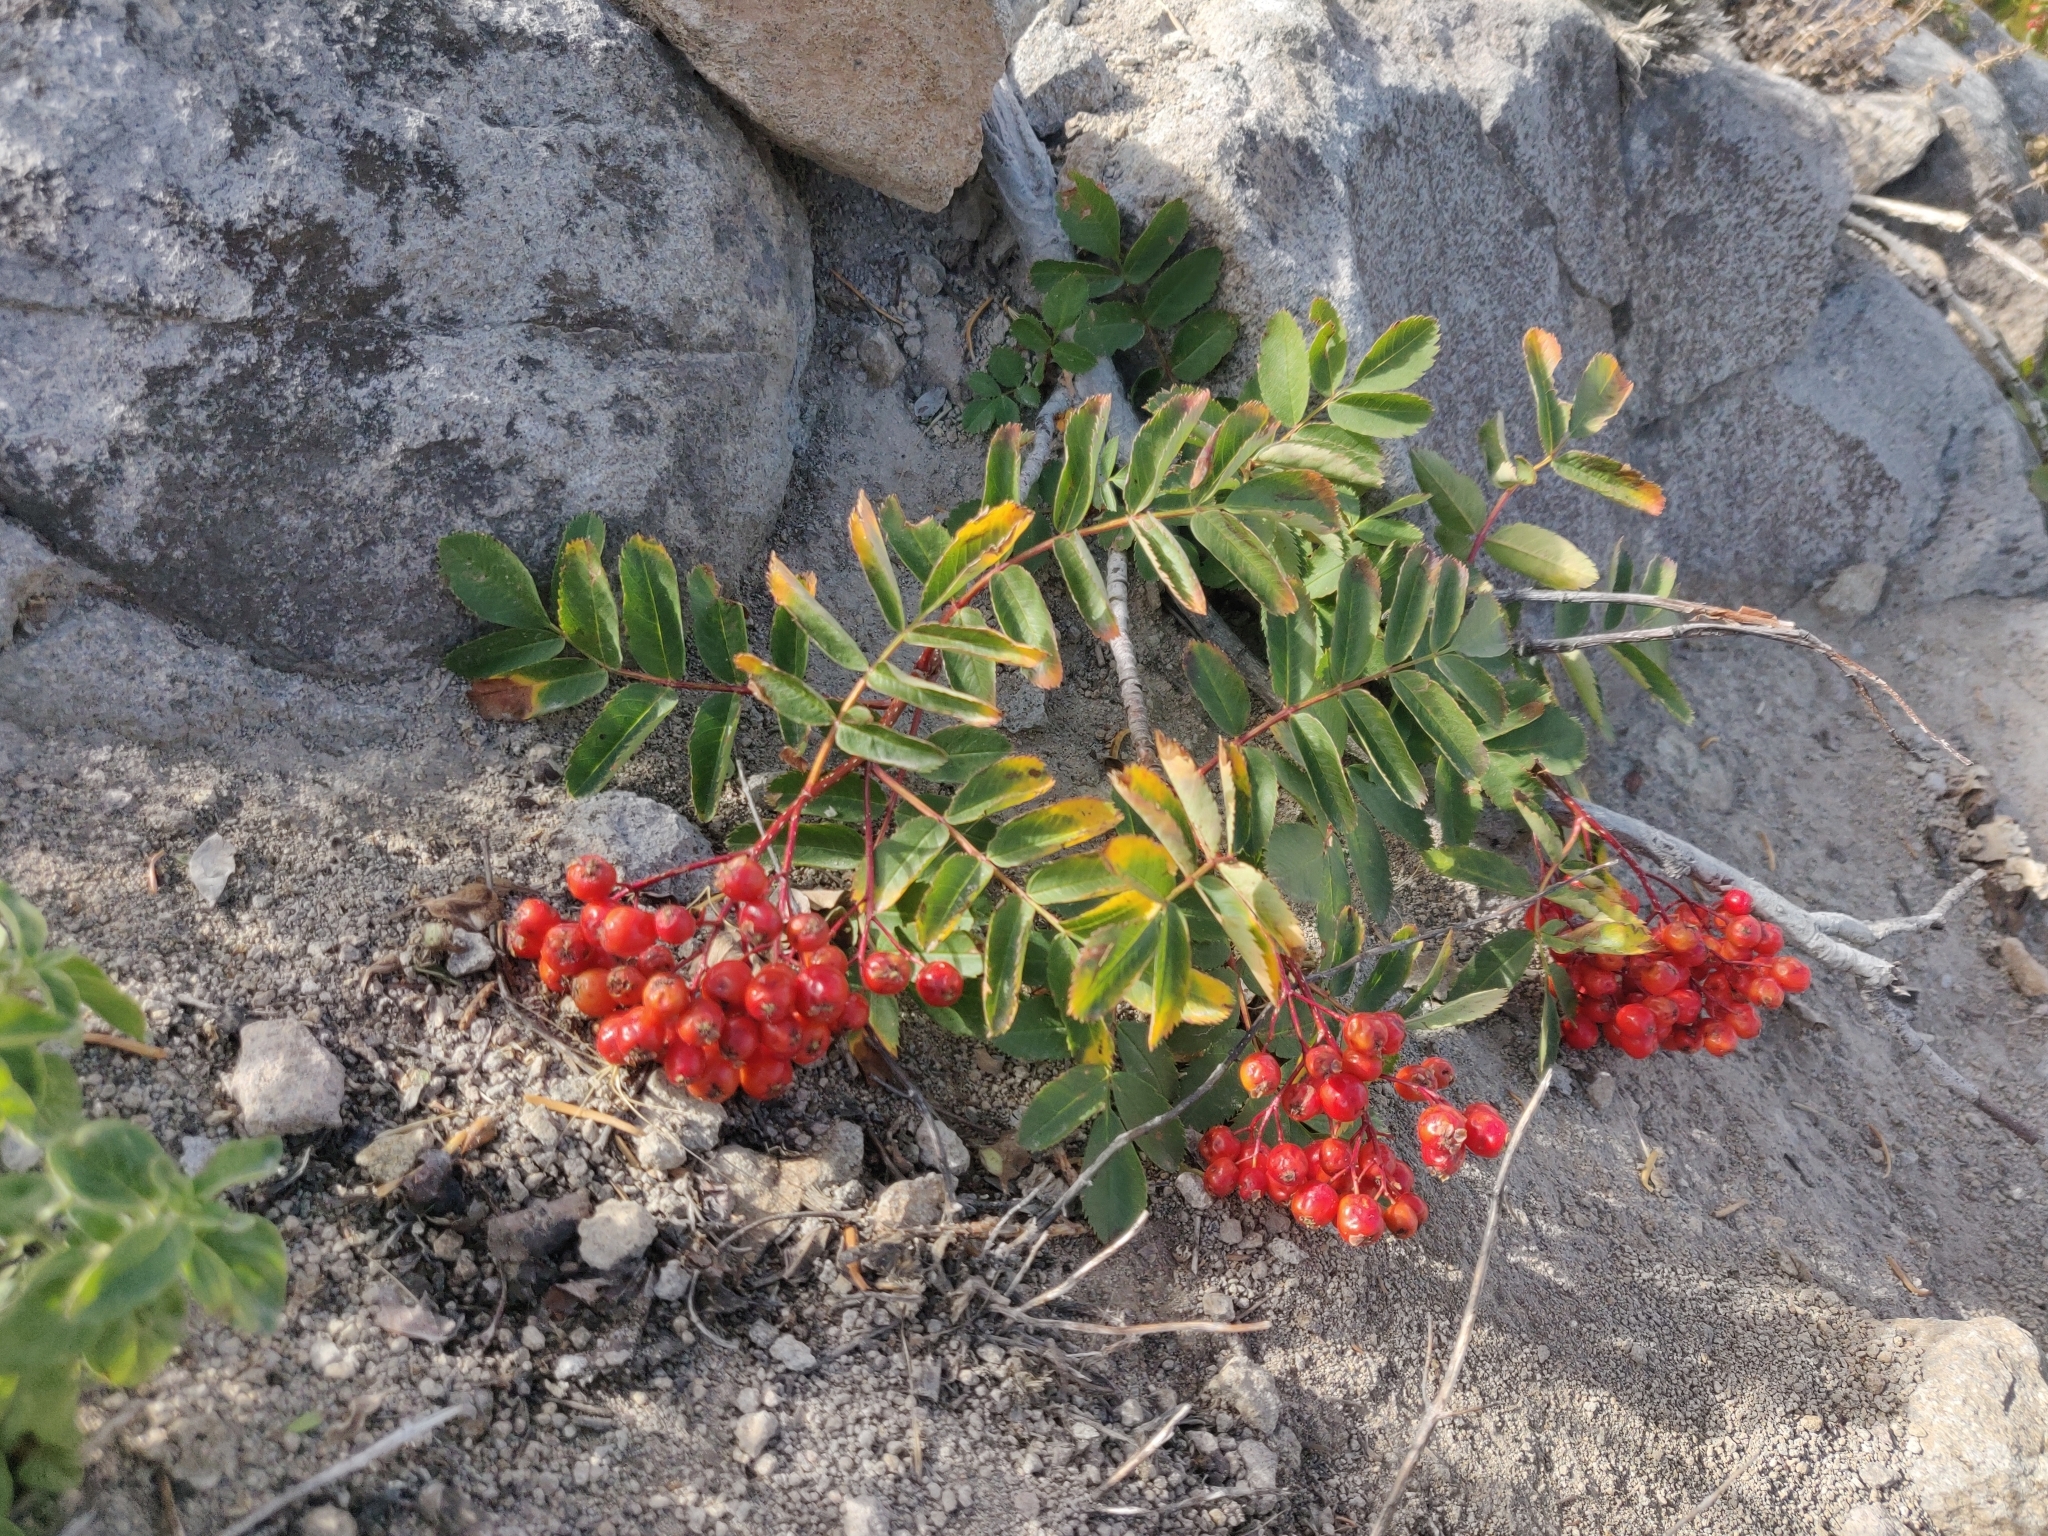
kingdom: Plantae
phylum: Tracheophyta
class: Magnoliopsida
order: Rosales
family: Rosaceae
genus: Sorbus
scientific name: Sorbus californica
